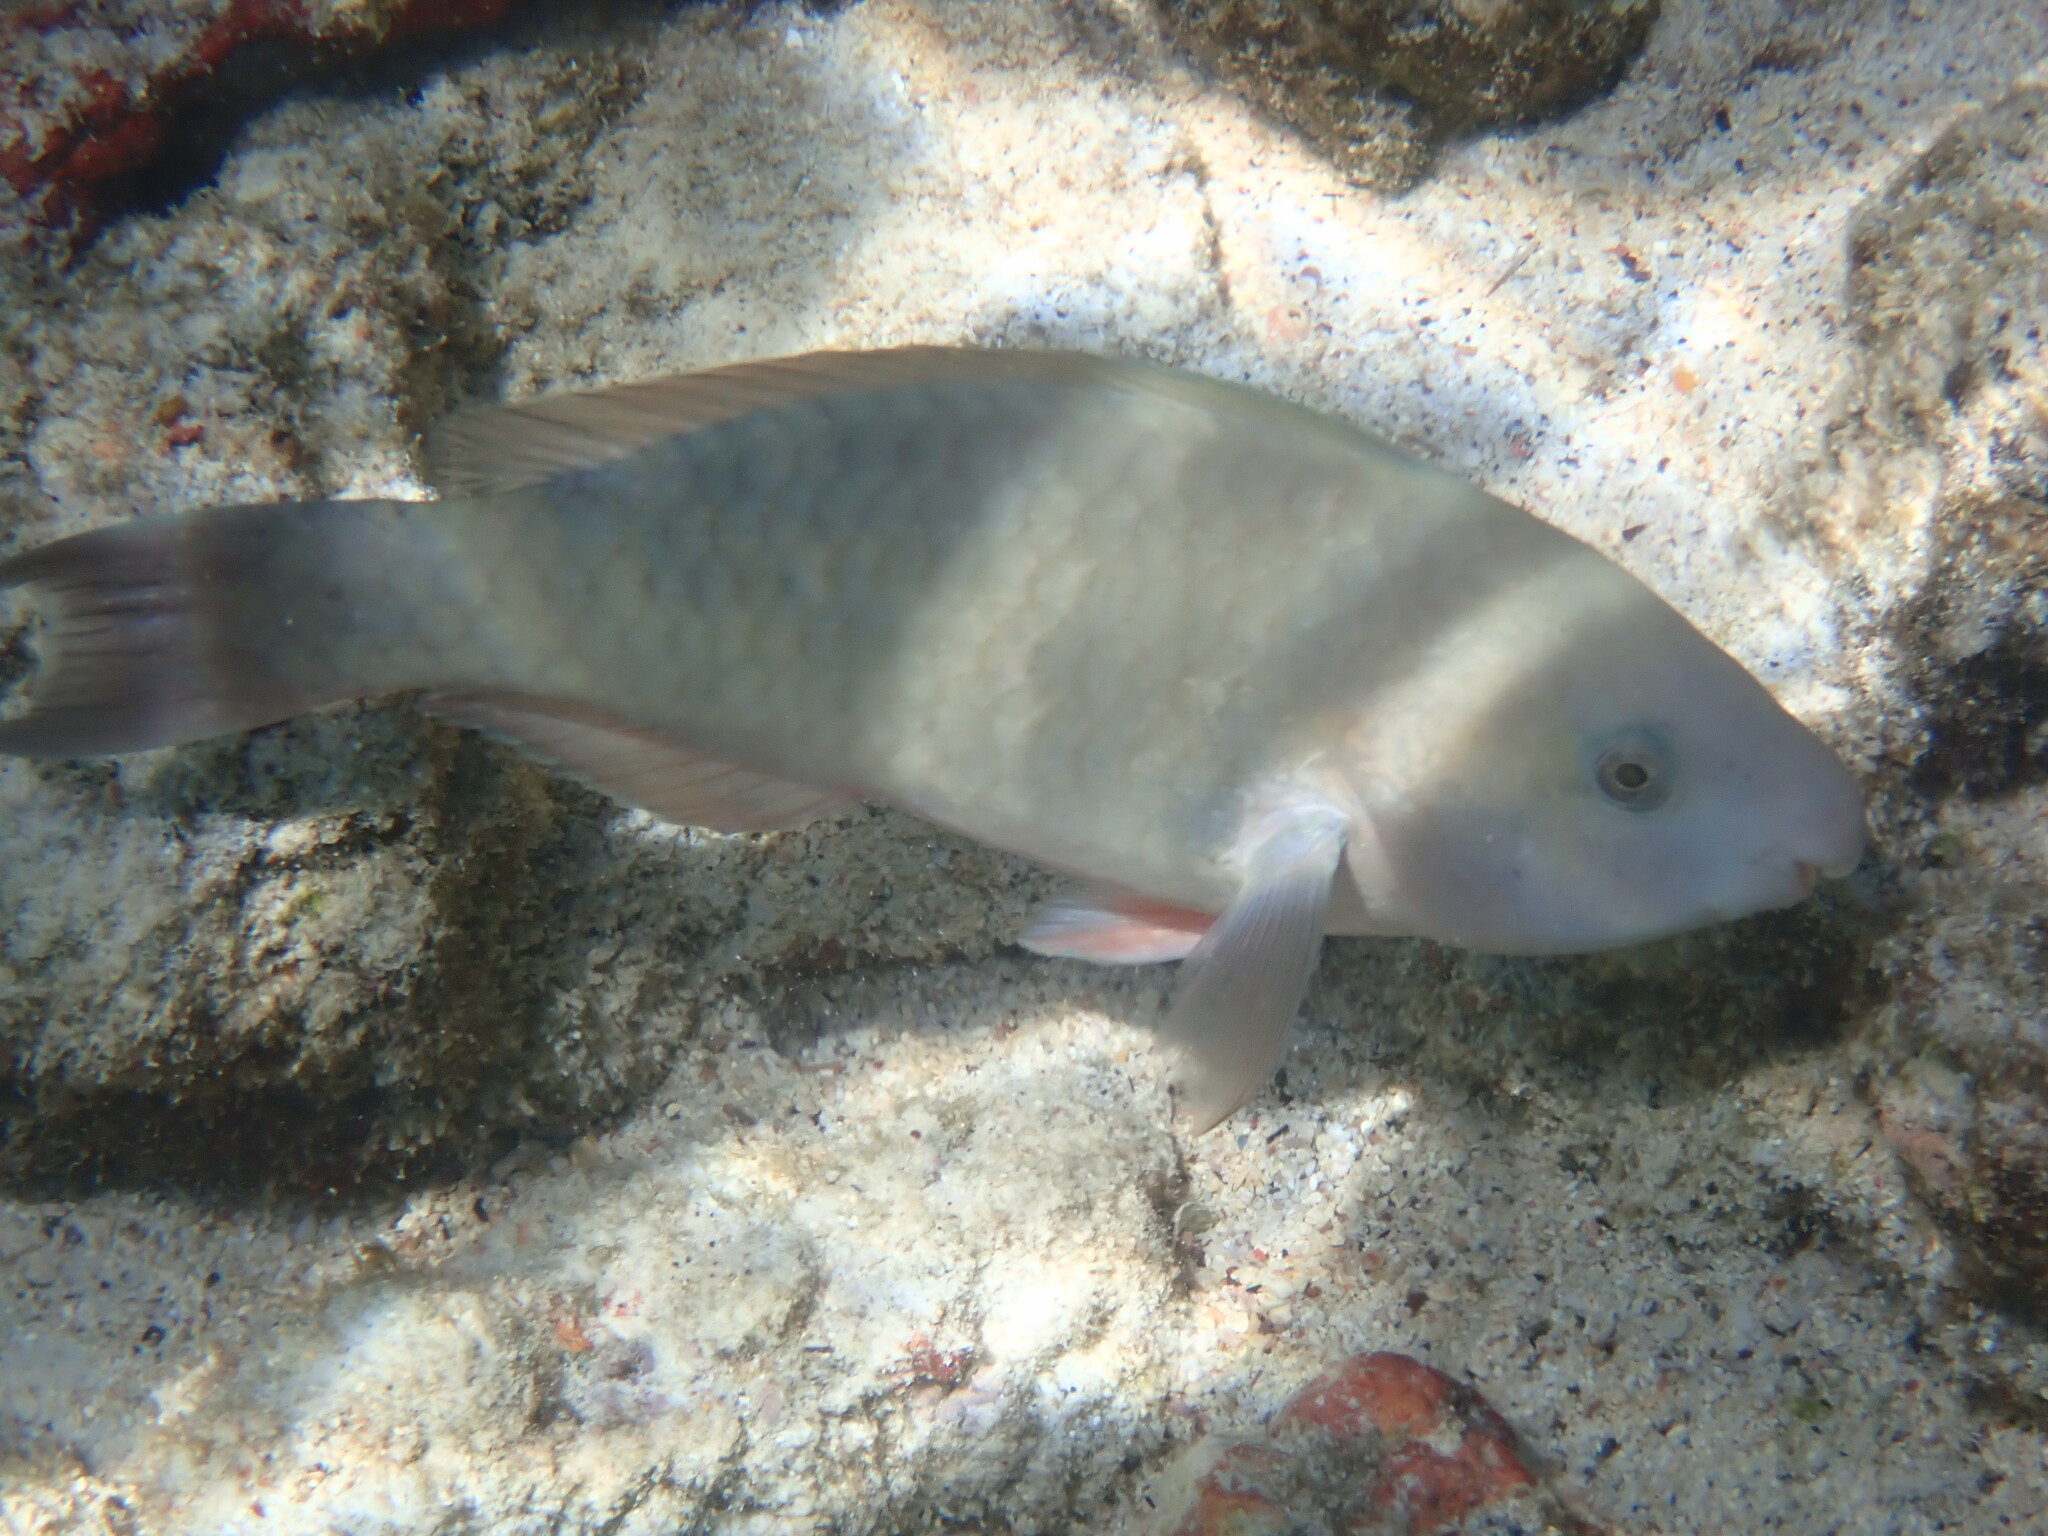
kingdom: Animalia
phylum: Chordata
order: Perciformes
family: Scaridae
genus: Scarus
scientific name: Scarus psittacus
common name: Palenose parrotfish
